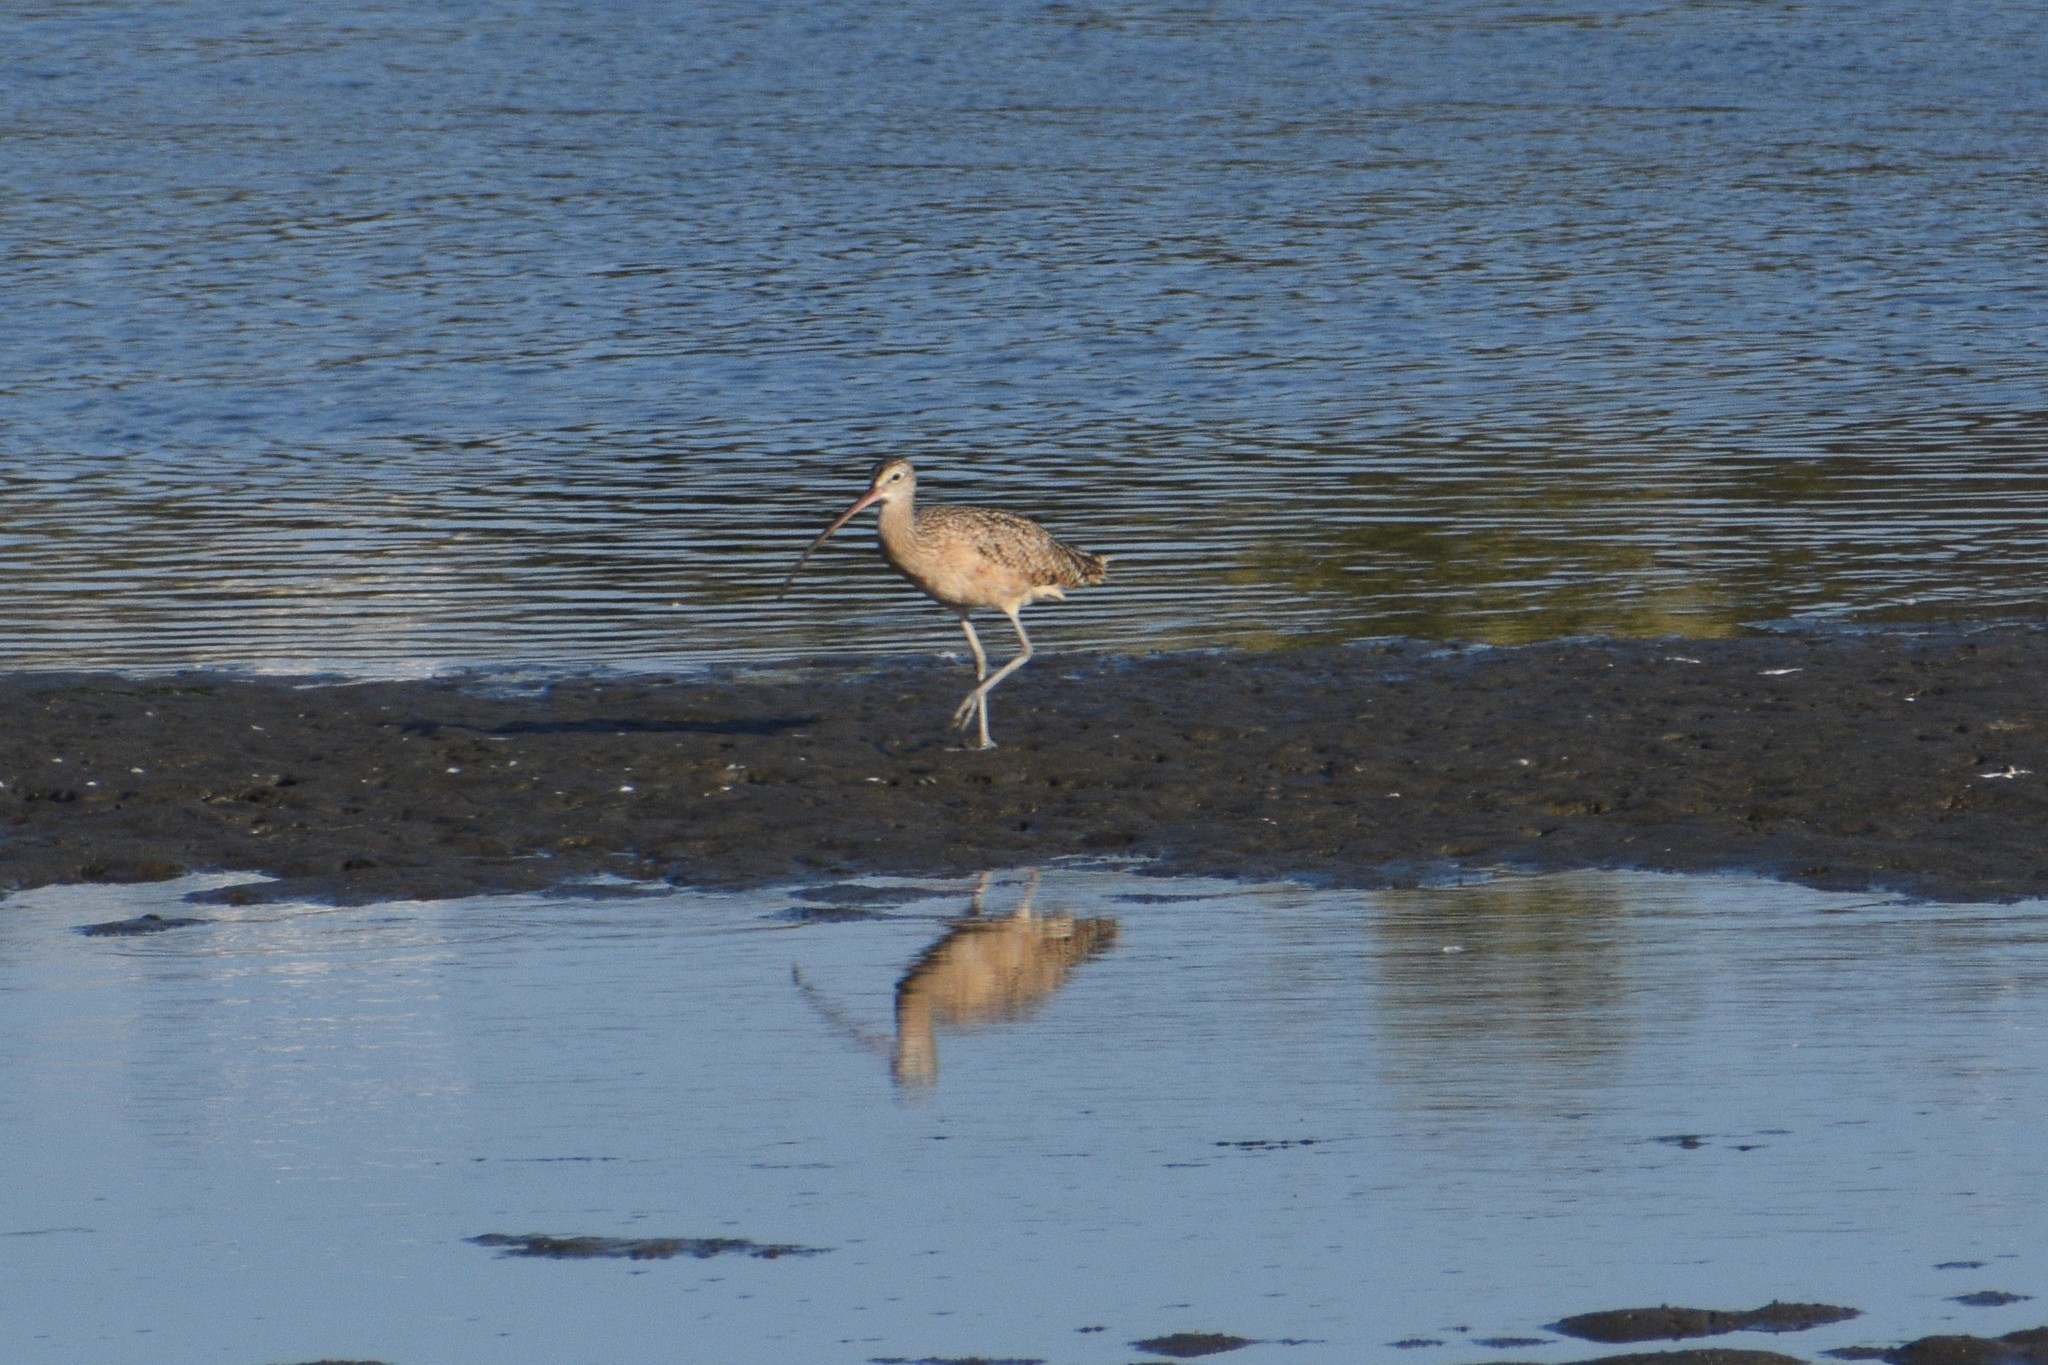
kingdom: Animalia
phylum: Chordata
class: Aves
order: Charadriiformes
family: Scolopacidae
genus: Numenius
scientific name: Numenius americanus
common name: Long-billed curlew
